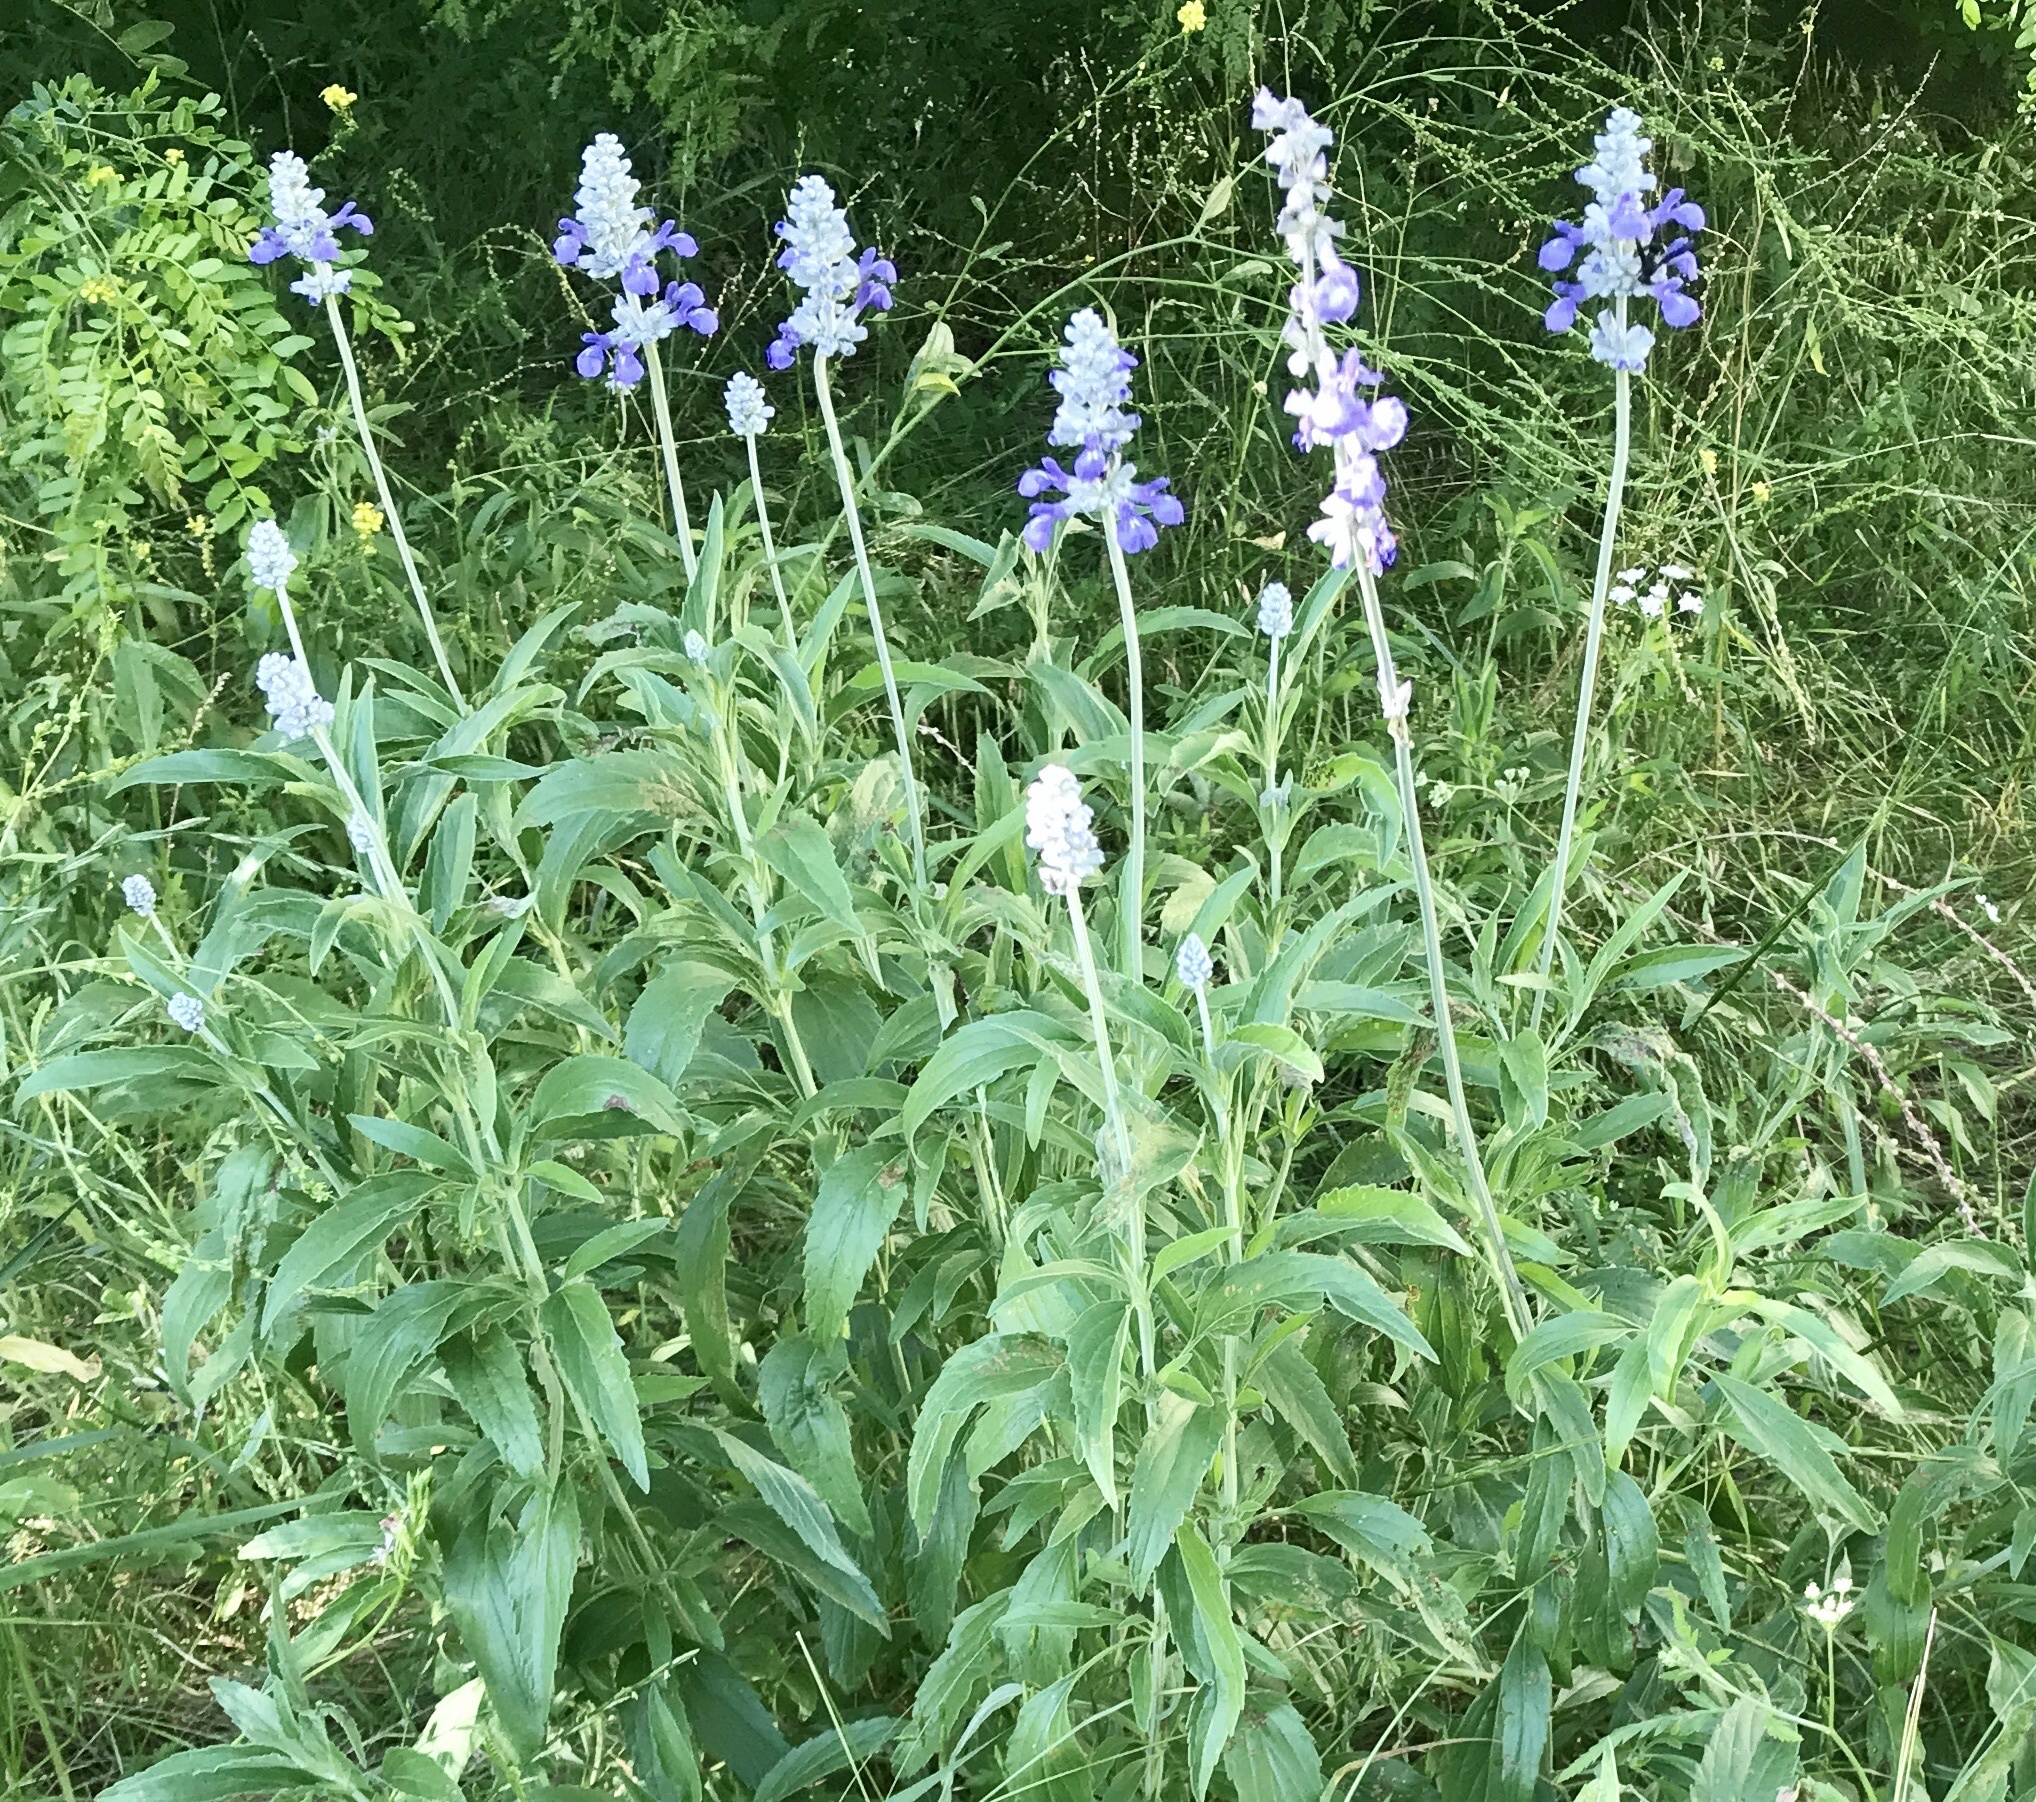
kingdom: Plantae
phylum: Tracheophyta
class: Magnoliopsida
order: Lamiales
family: Lamiaceae
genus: Salvia
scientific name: Salvia farinacea
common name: Mealy sage
